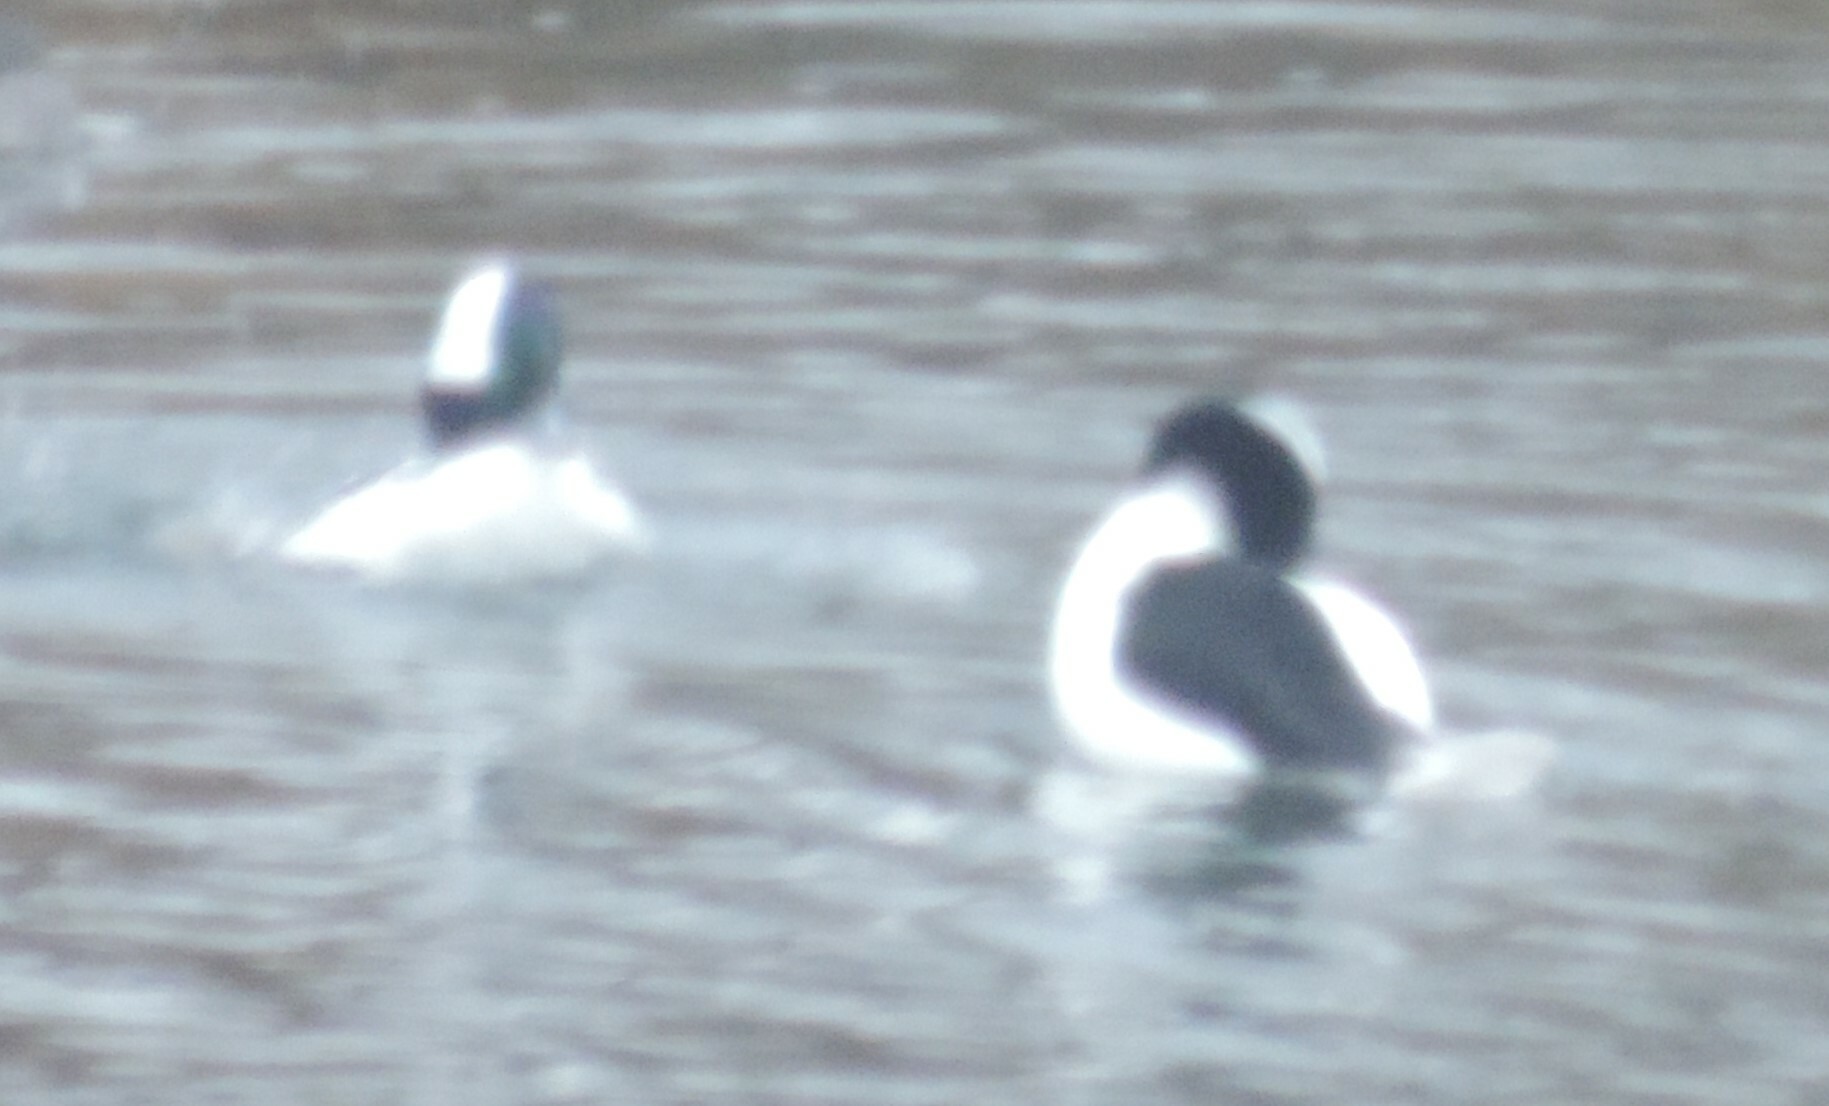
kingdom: Animalia
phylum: Chordata
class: Aves
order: Anseriformes
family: Anatidae
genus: Bucephala
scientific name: Bucephala albeola
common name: Bufflehead
